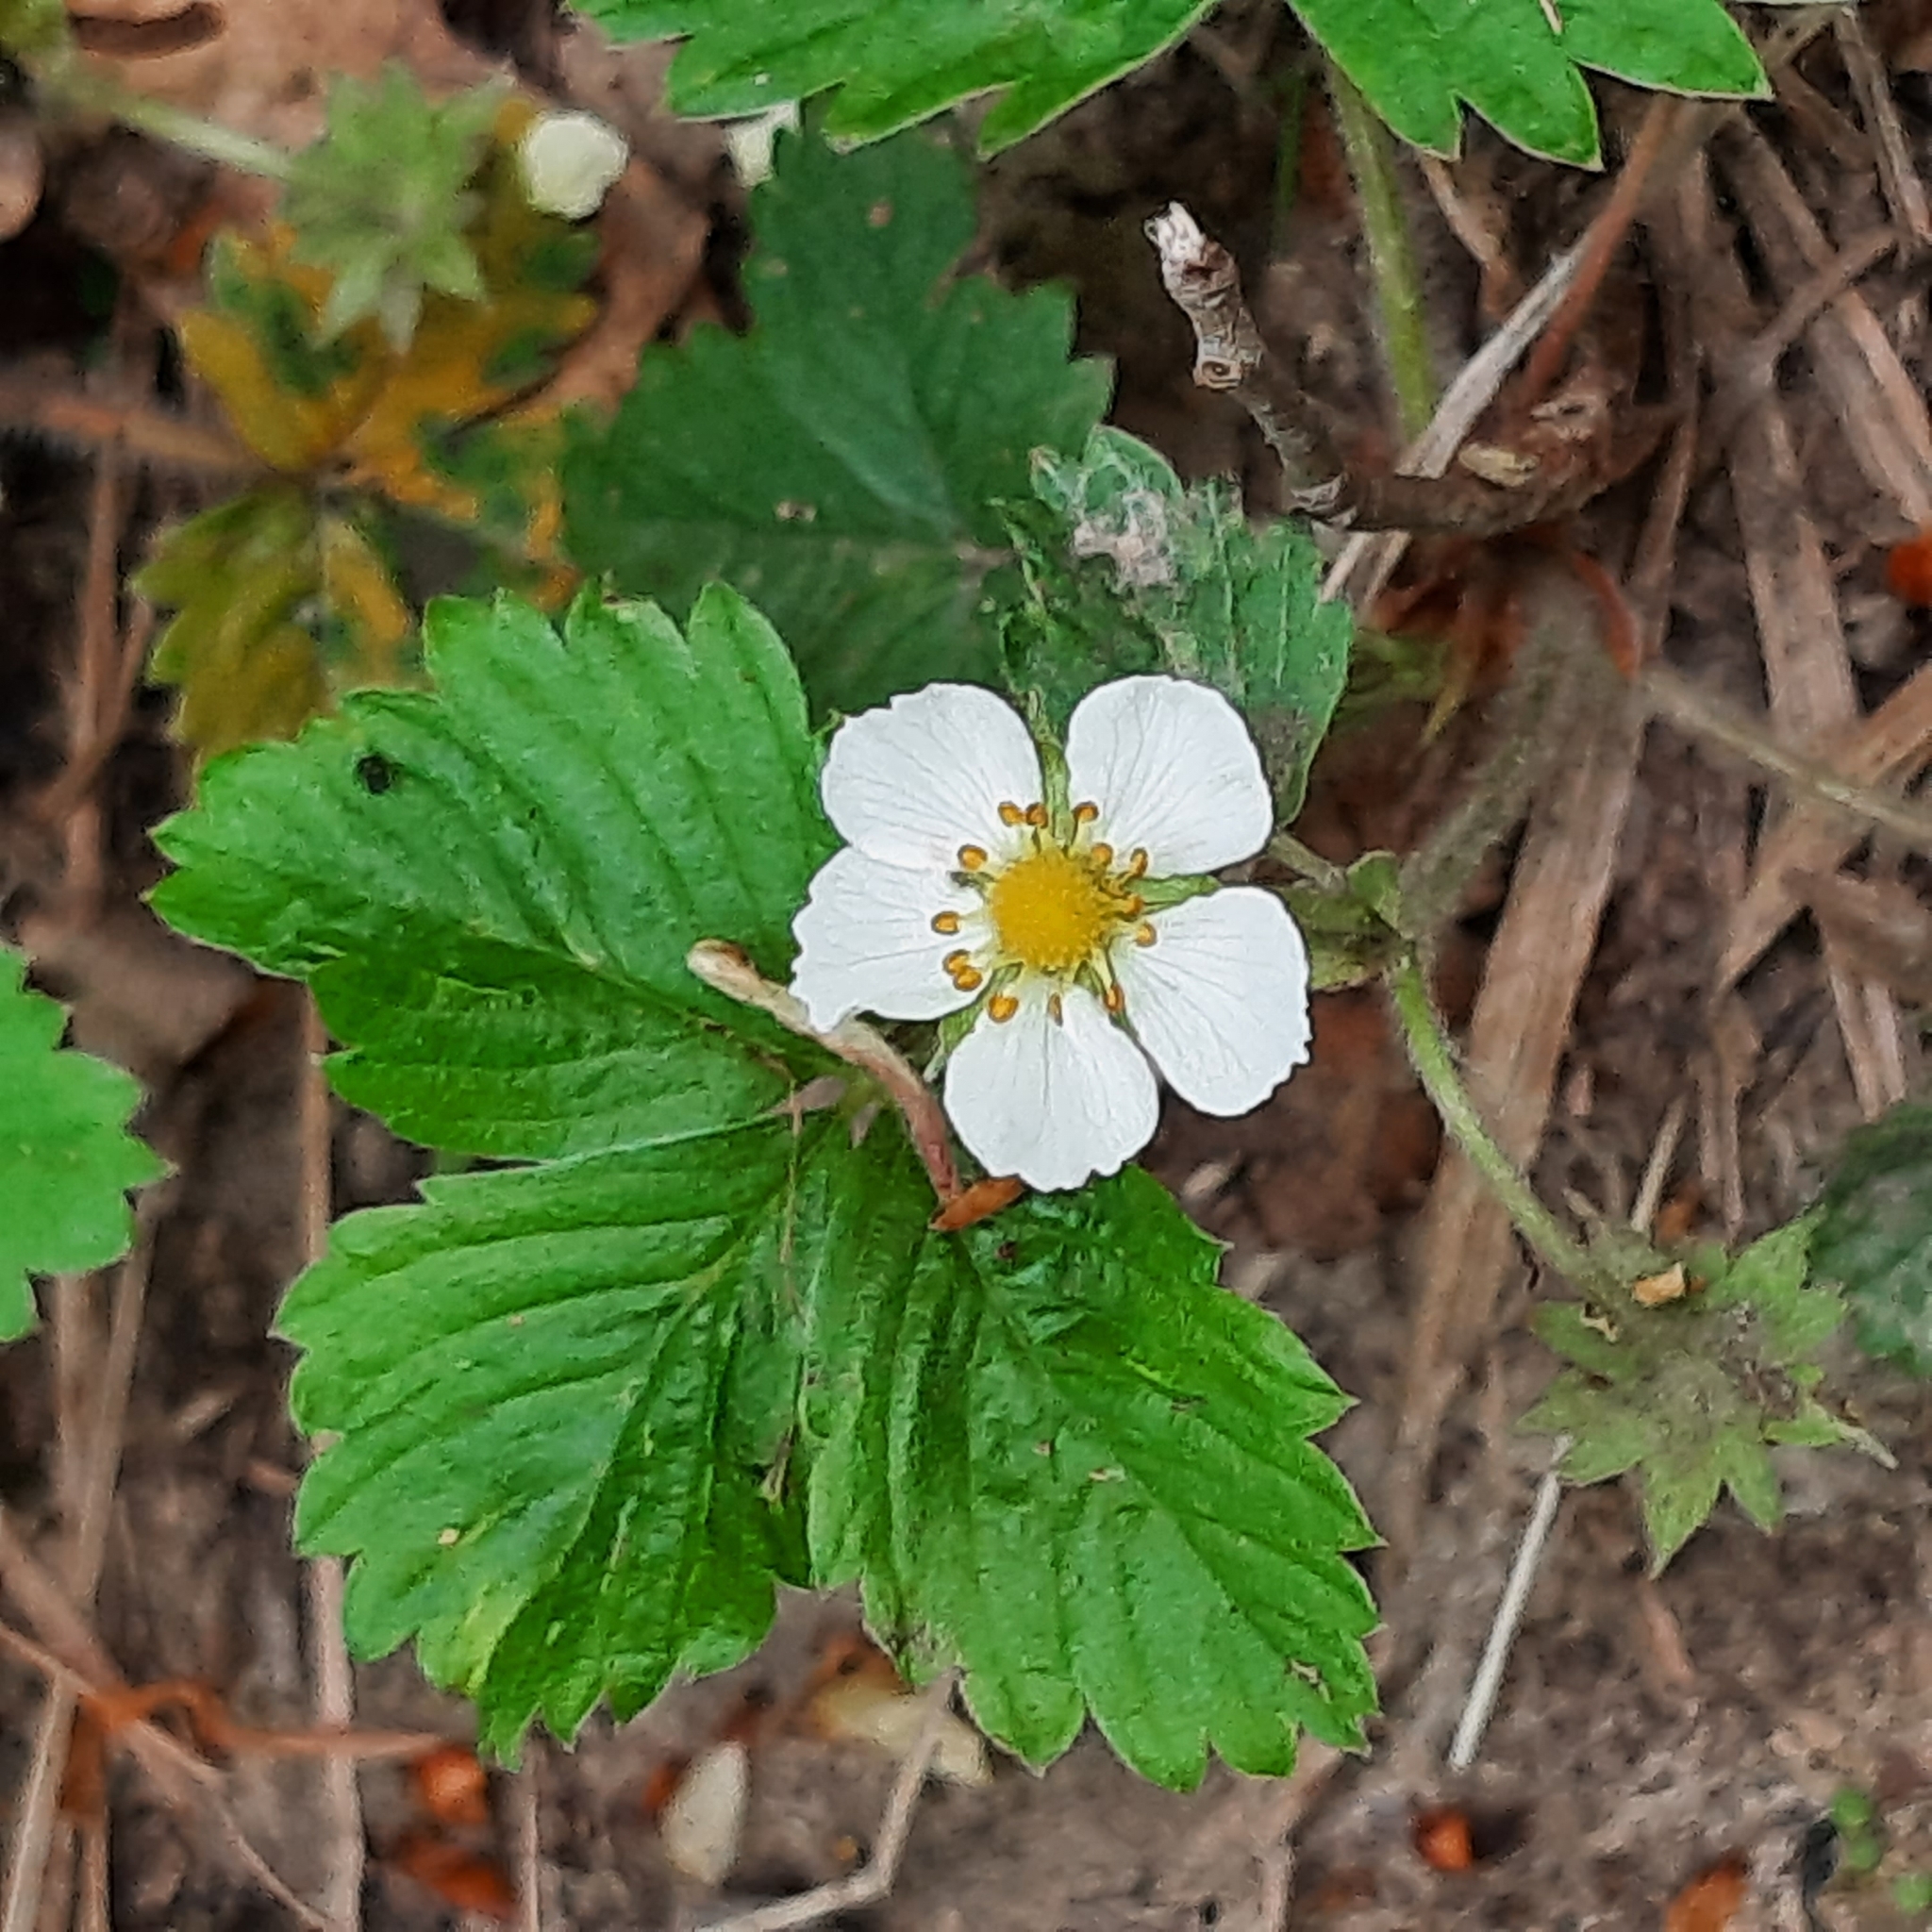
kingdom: Plantae
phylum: Tracheophyta
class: Magnoliopsida
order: Rosales
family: Rosaceae
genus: Fragaria
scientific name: Fragaria vesca
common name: Wild strawberry
